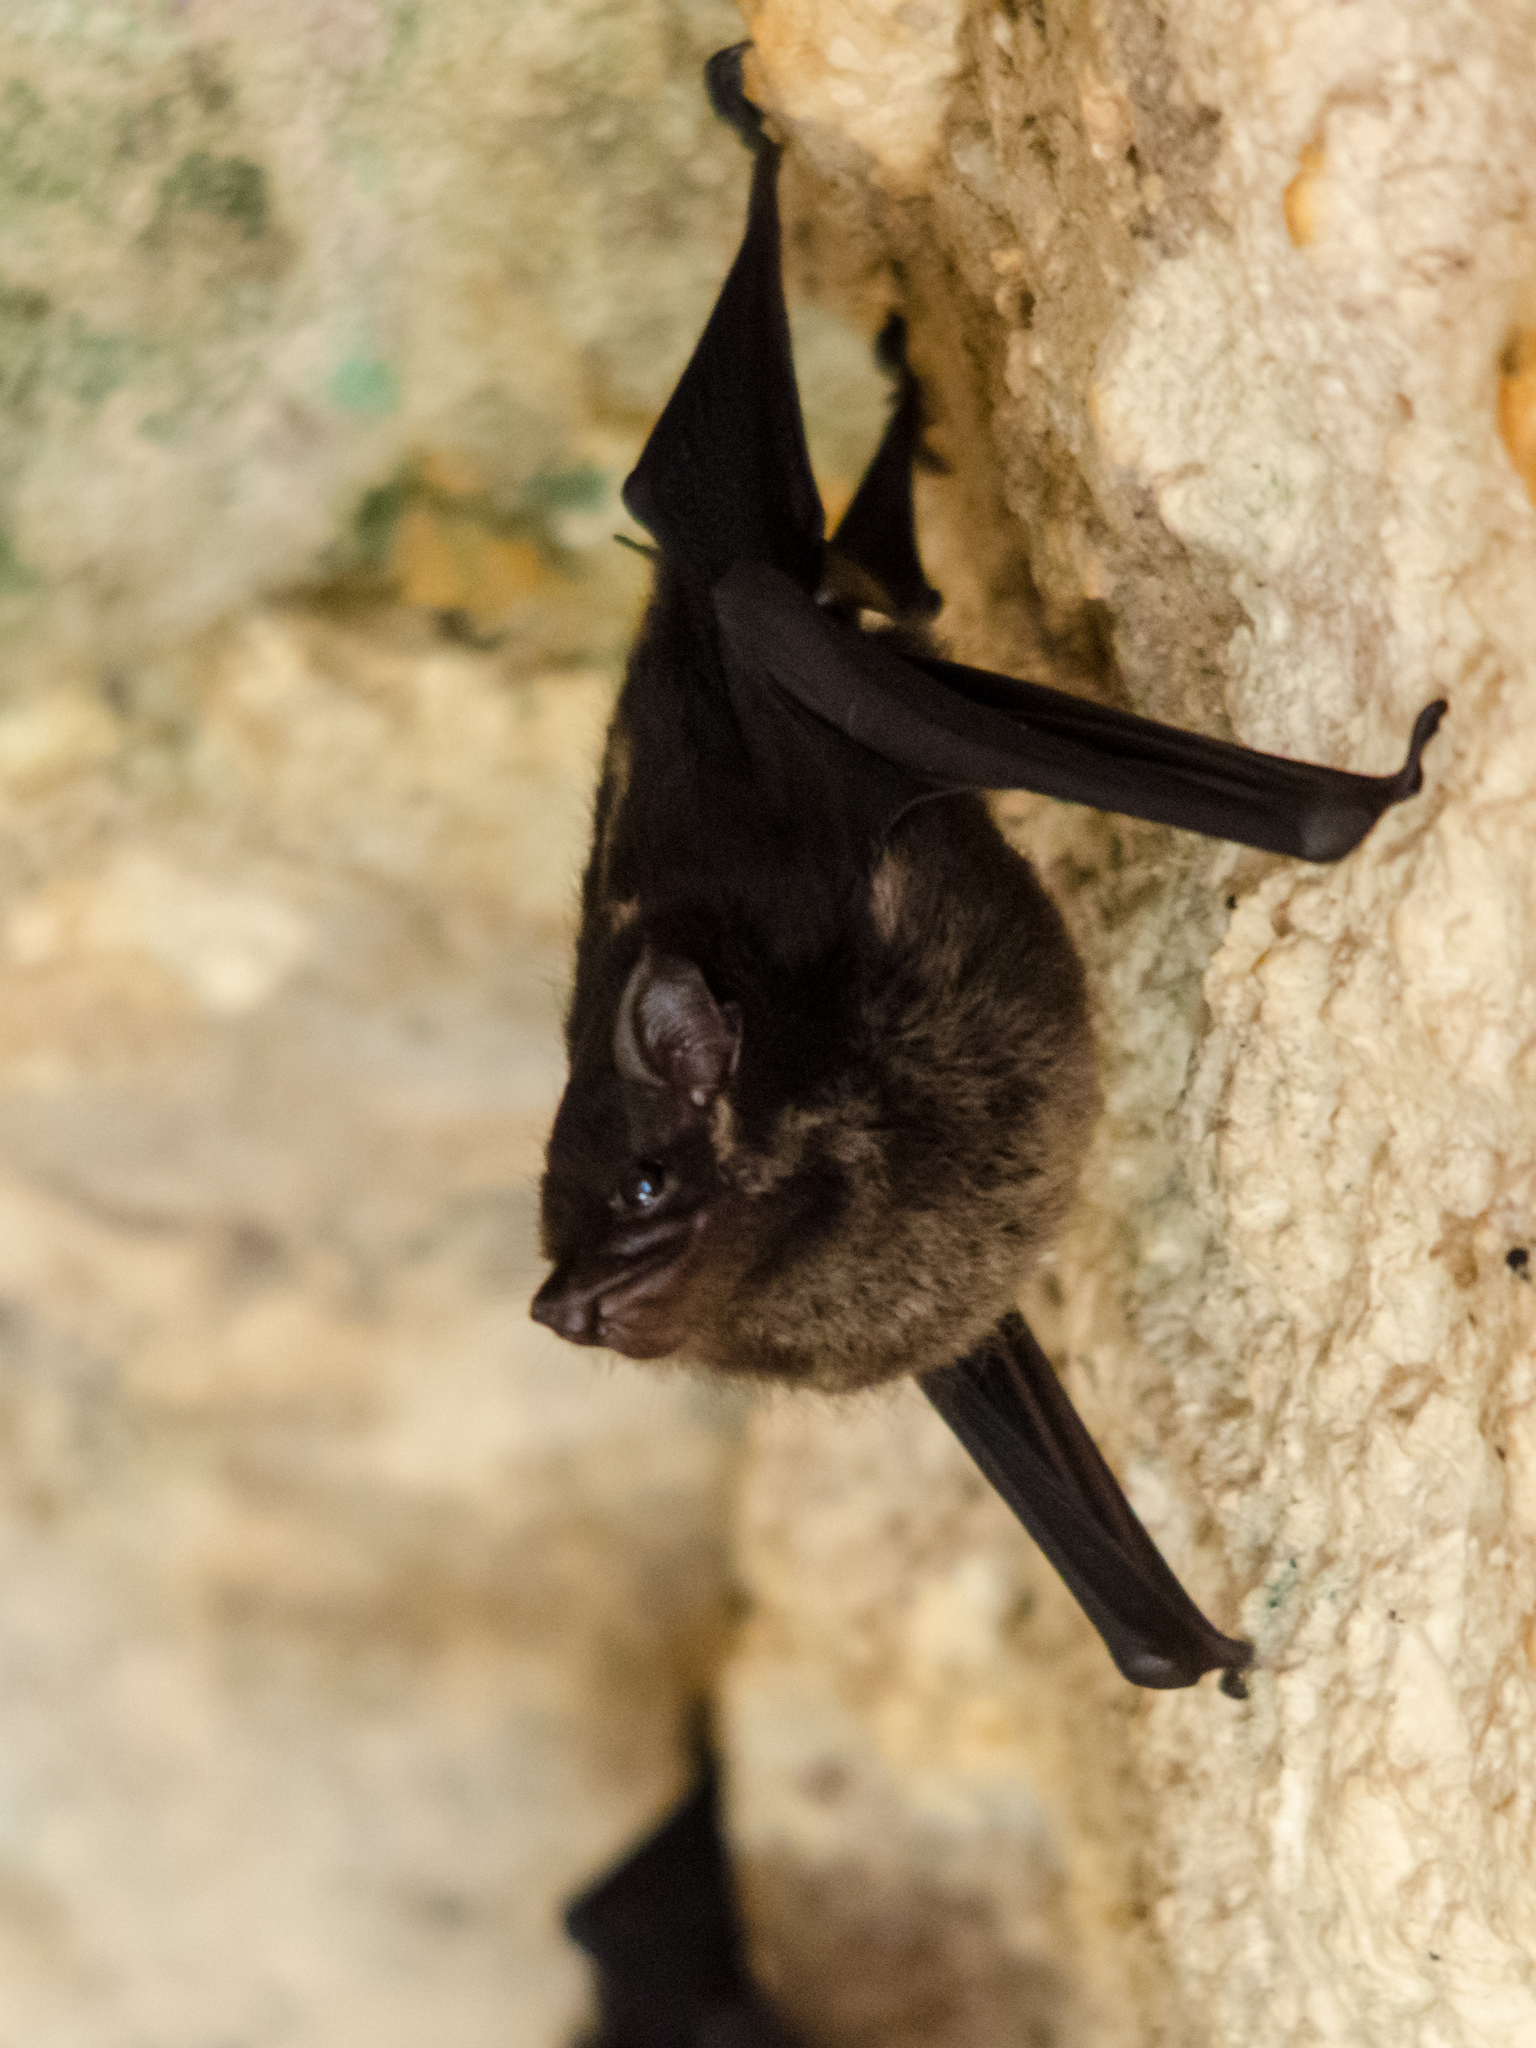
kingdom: Animalia
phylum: Chordata
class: Mammalia
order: Chiroptera
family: Emballonuridae
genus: Saccopteryx
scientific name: Saccopteryx bilineata
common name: Greater sac-winged bat
